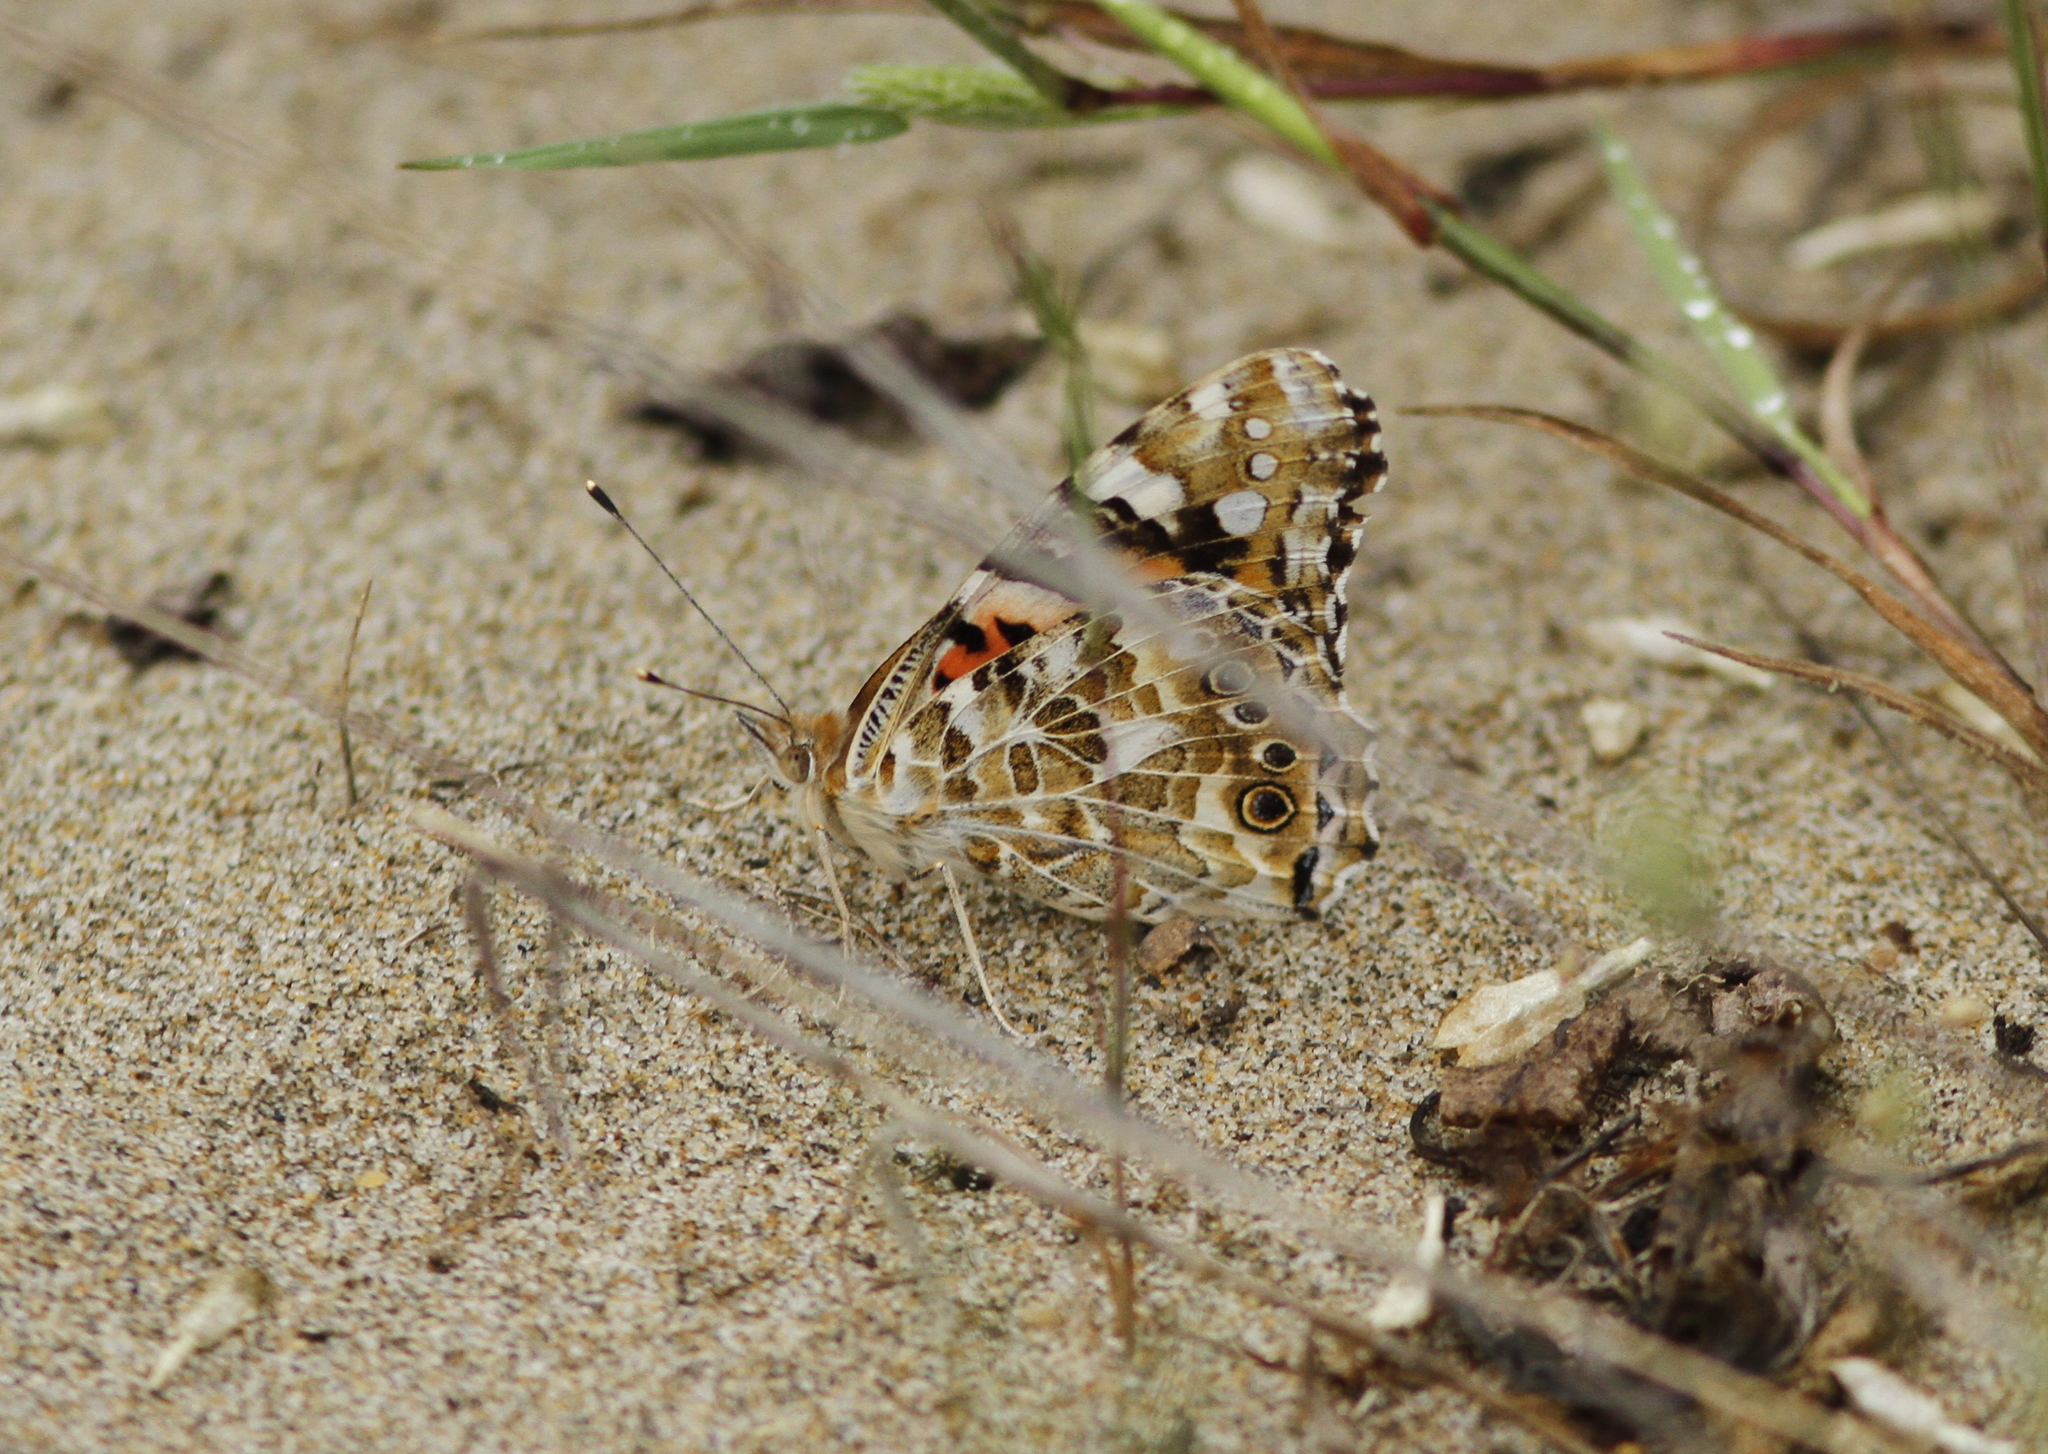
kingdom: Animalia
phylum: Arthropoda
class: Insecta
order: Lepidoptera
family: Nymphalidae
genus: Vanessa
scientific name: Vanessa cardui
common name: Painted lady
